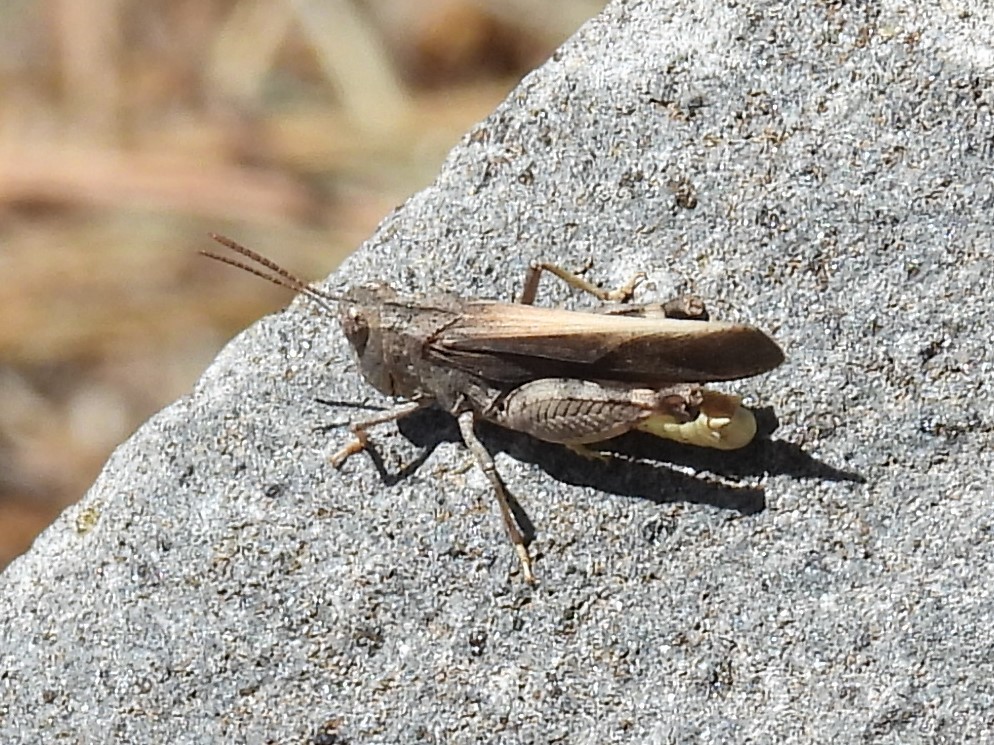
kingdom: Animalia
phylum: Arthropoda
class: Insecta
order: Orthoptera
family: Acrididae
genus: Arphia
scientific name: Arphia conspersa
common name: Speckle-winged rangeland grasshopper
